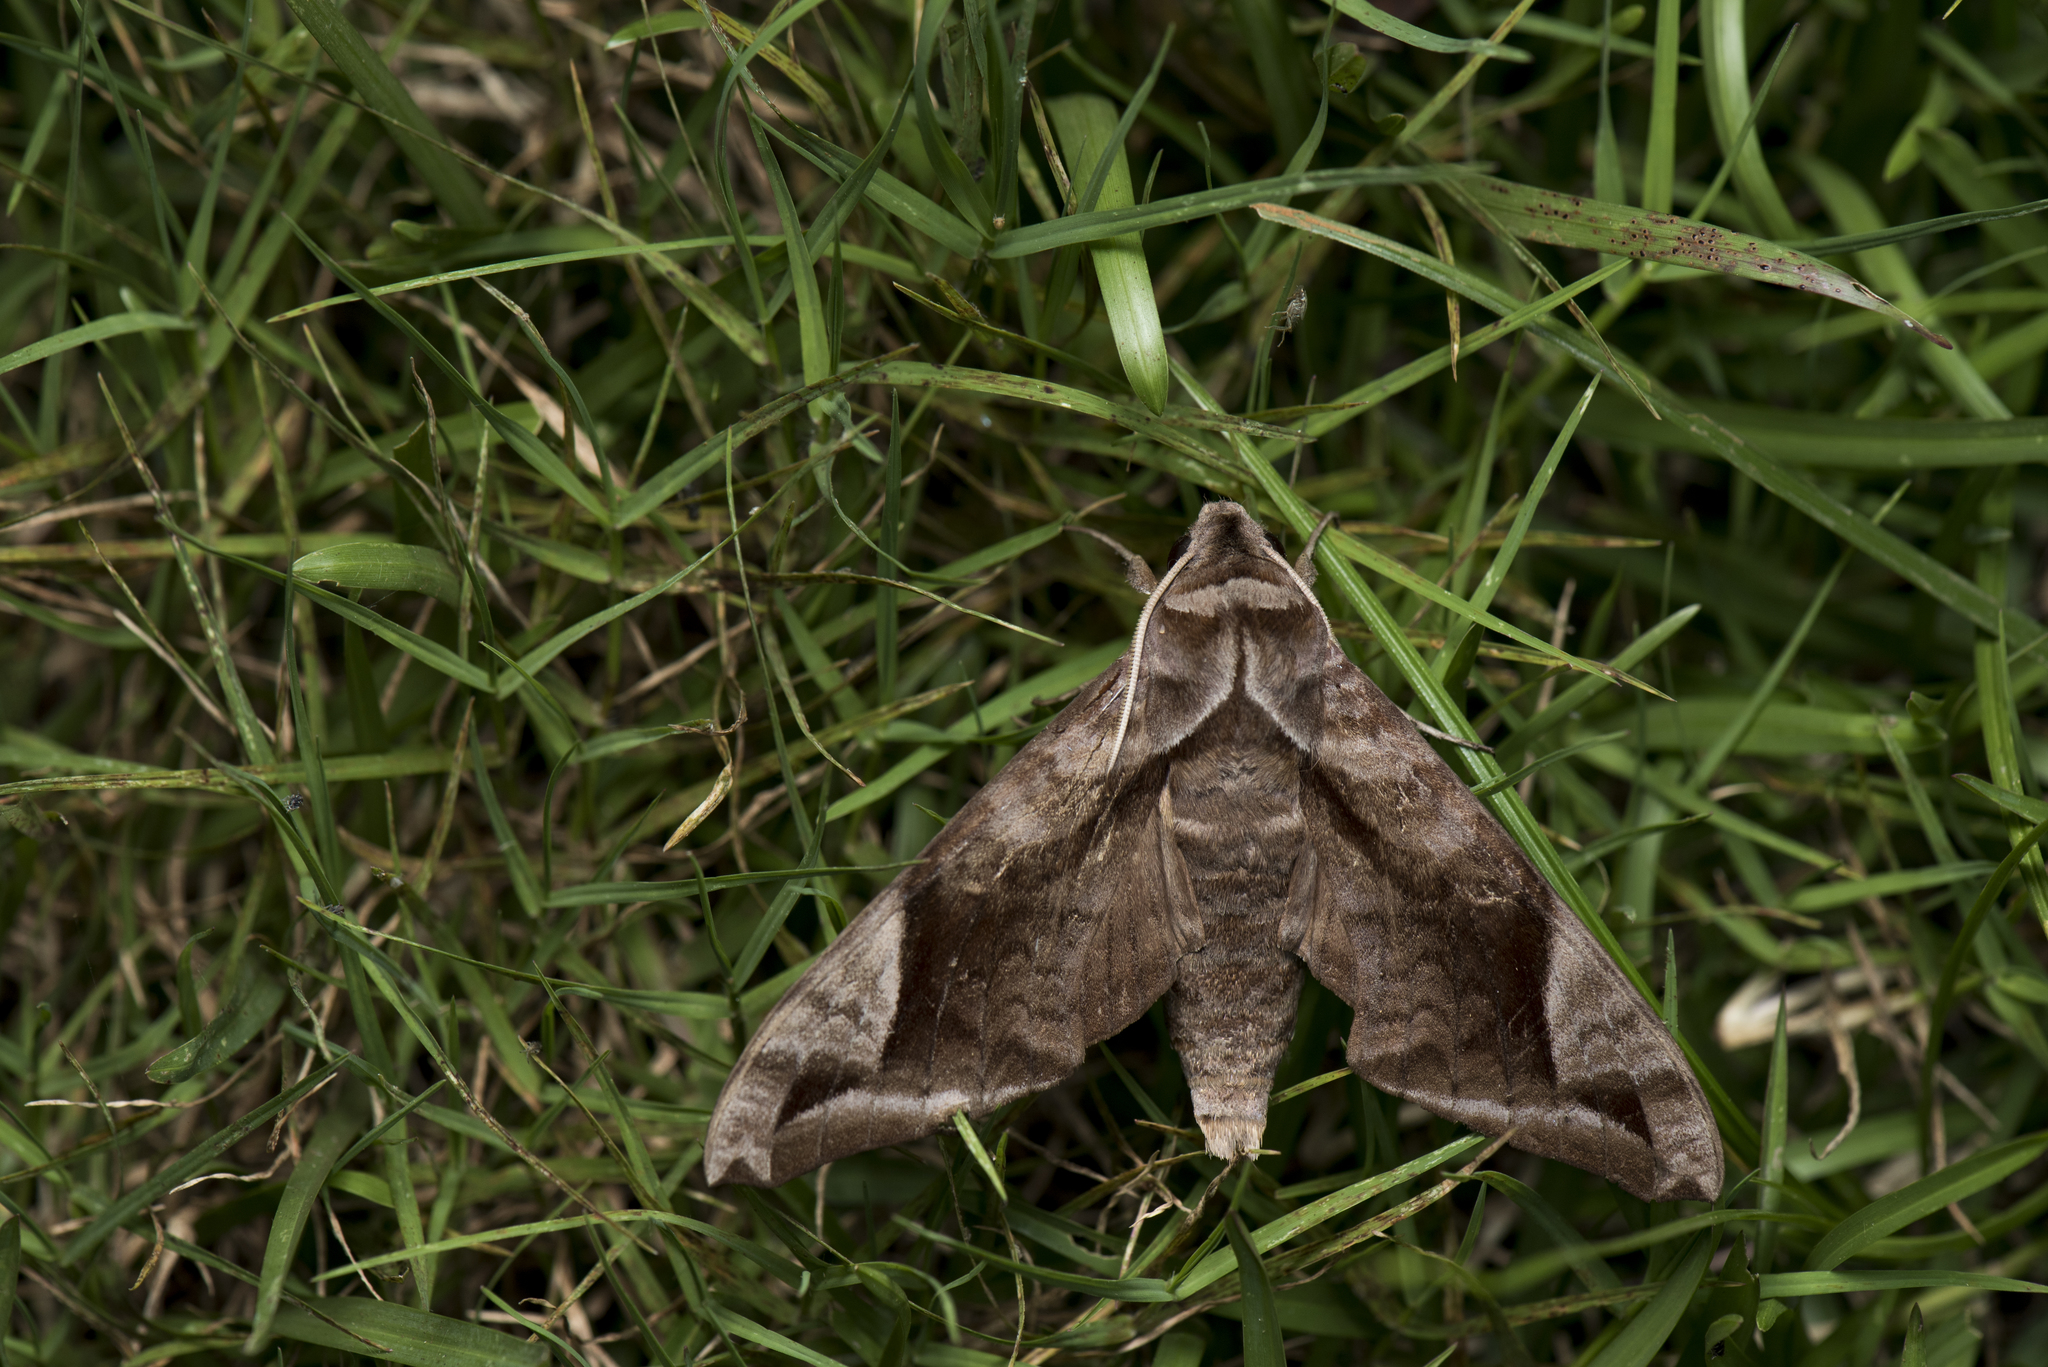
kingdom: Animalia
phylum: Arthropoda
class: Insecta
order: Lepidoptera
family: Sphingidae
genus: Acosmeryx
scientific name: Acosmeryx naga
